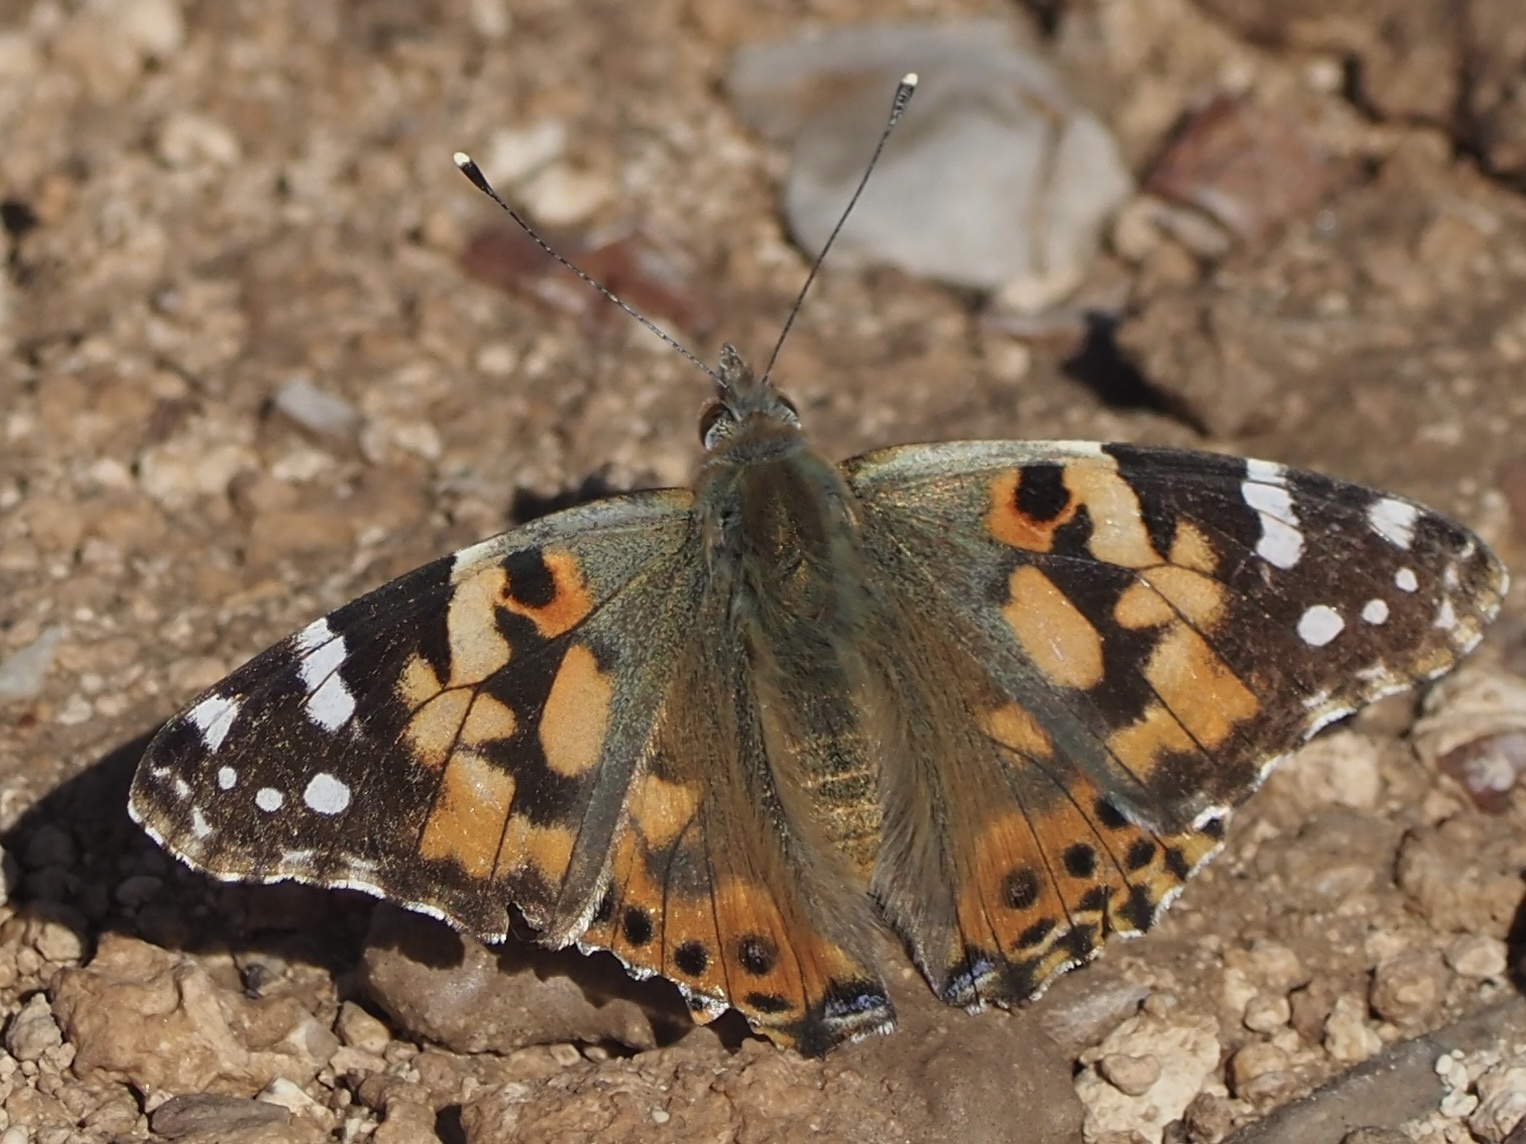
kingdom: Animalia
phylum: Arthropoda
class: Insecta
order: Lepidoptera
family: Nymphalidae
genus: Vanessa
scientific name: Vanessa cardui
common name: Painted lady
